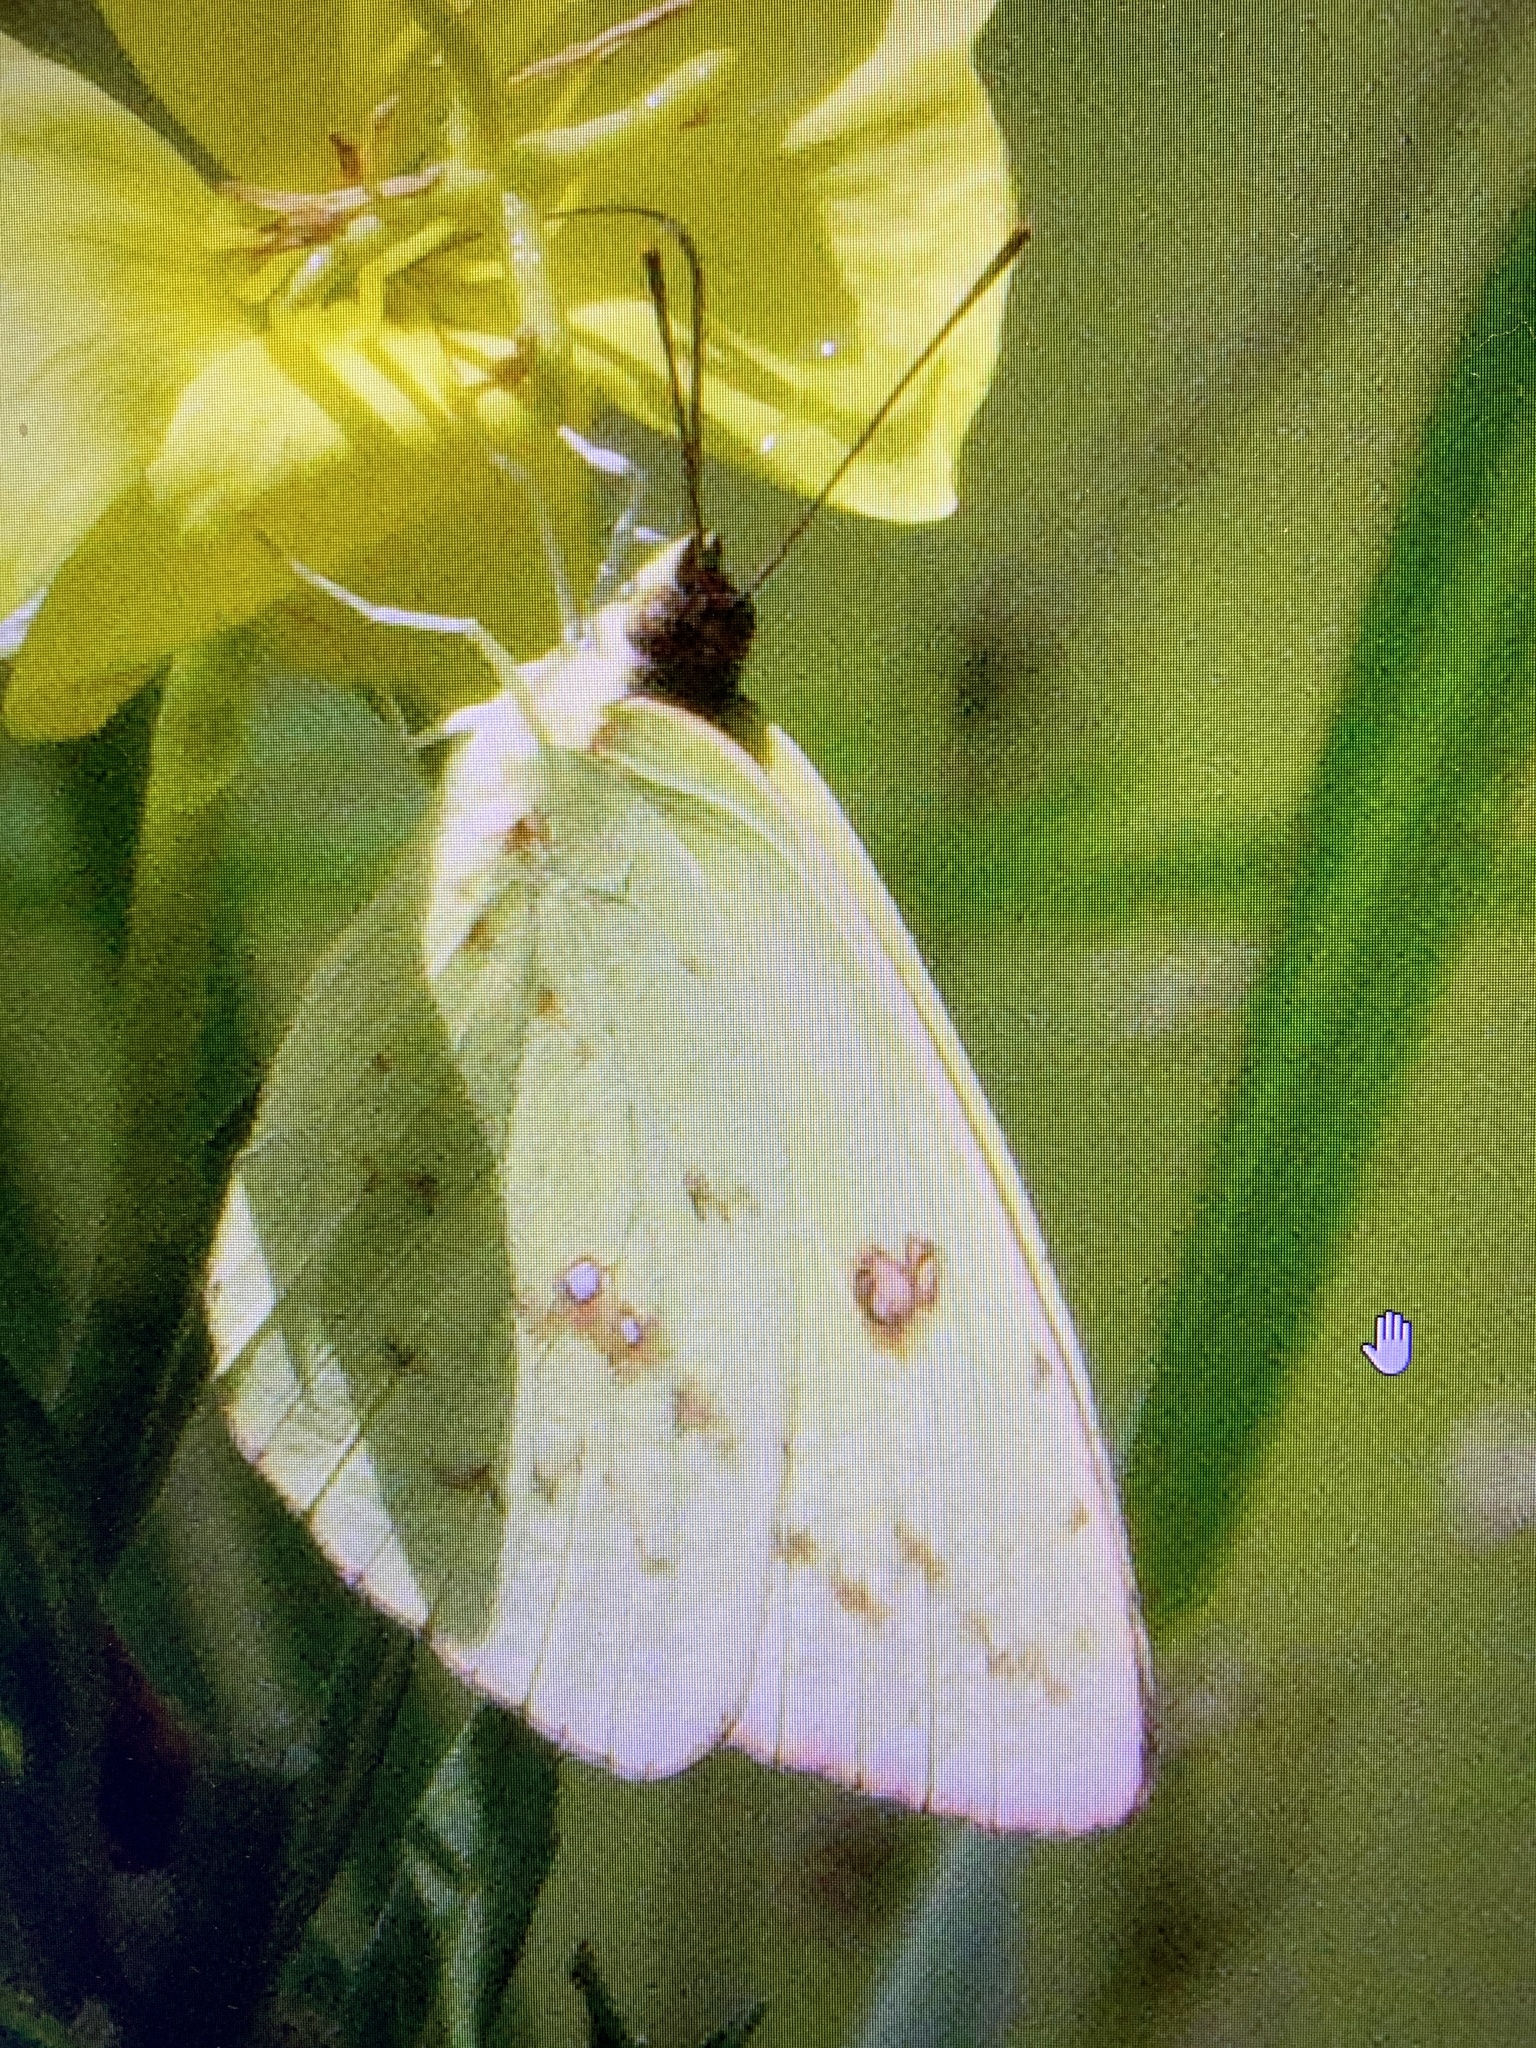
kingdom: Animalia
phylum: Arthropoda
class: Insecta
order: Lepidoptera
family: Pieridae
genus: Phoebis
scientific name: Phoebis sennae
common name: Cloudless sulphur
